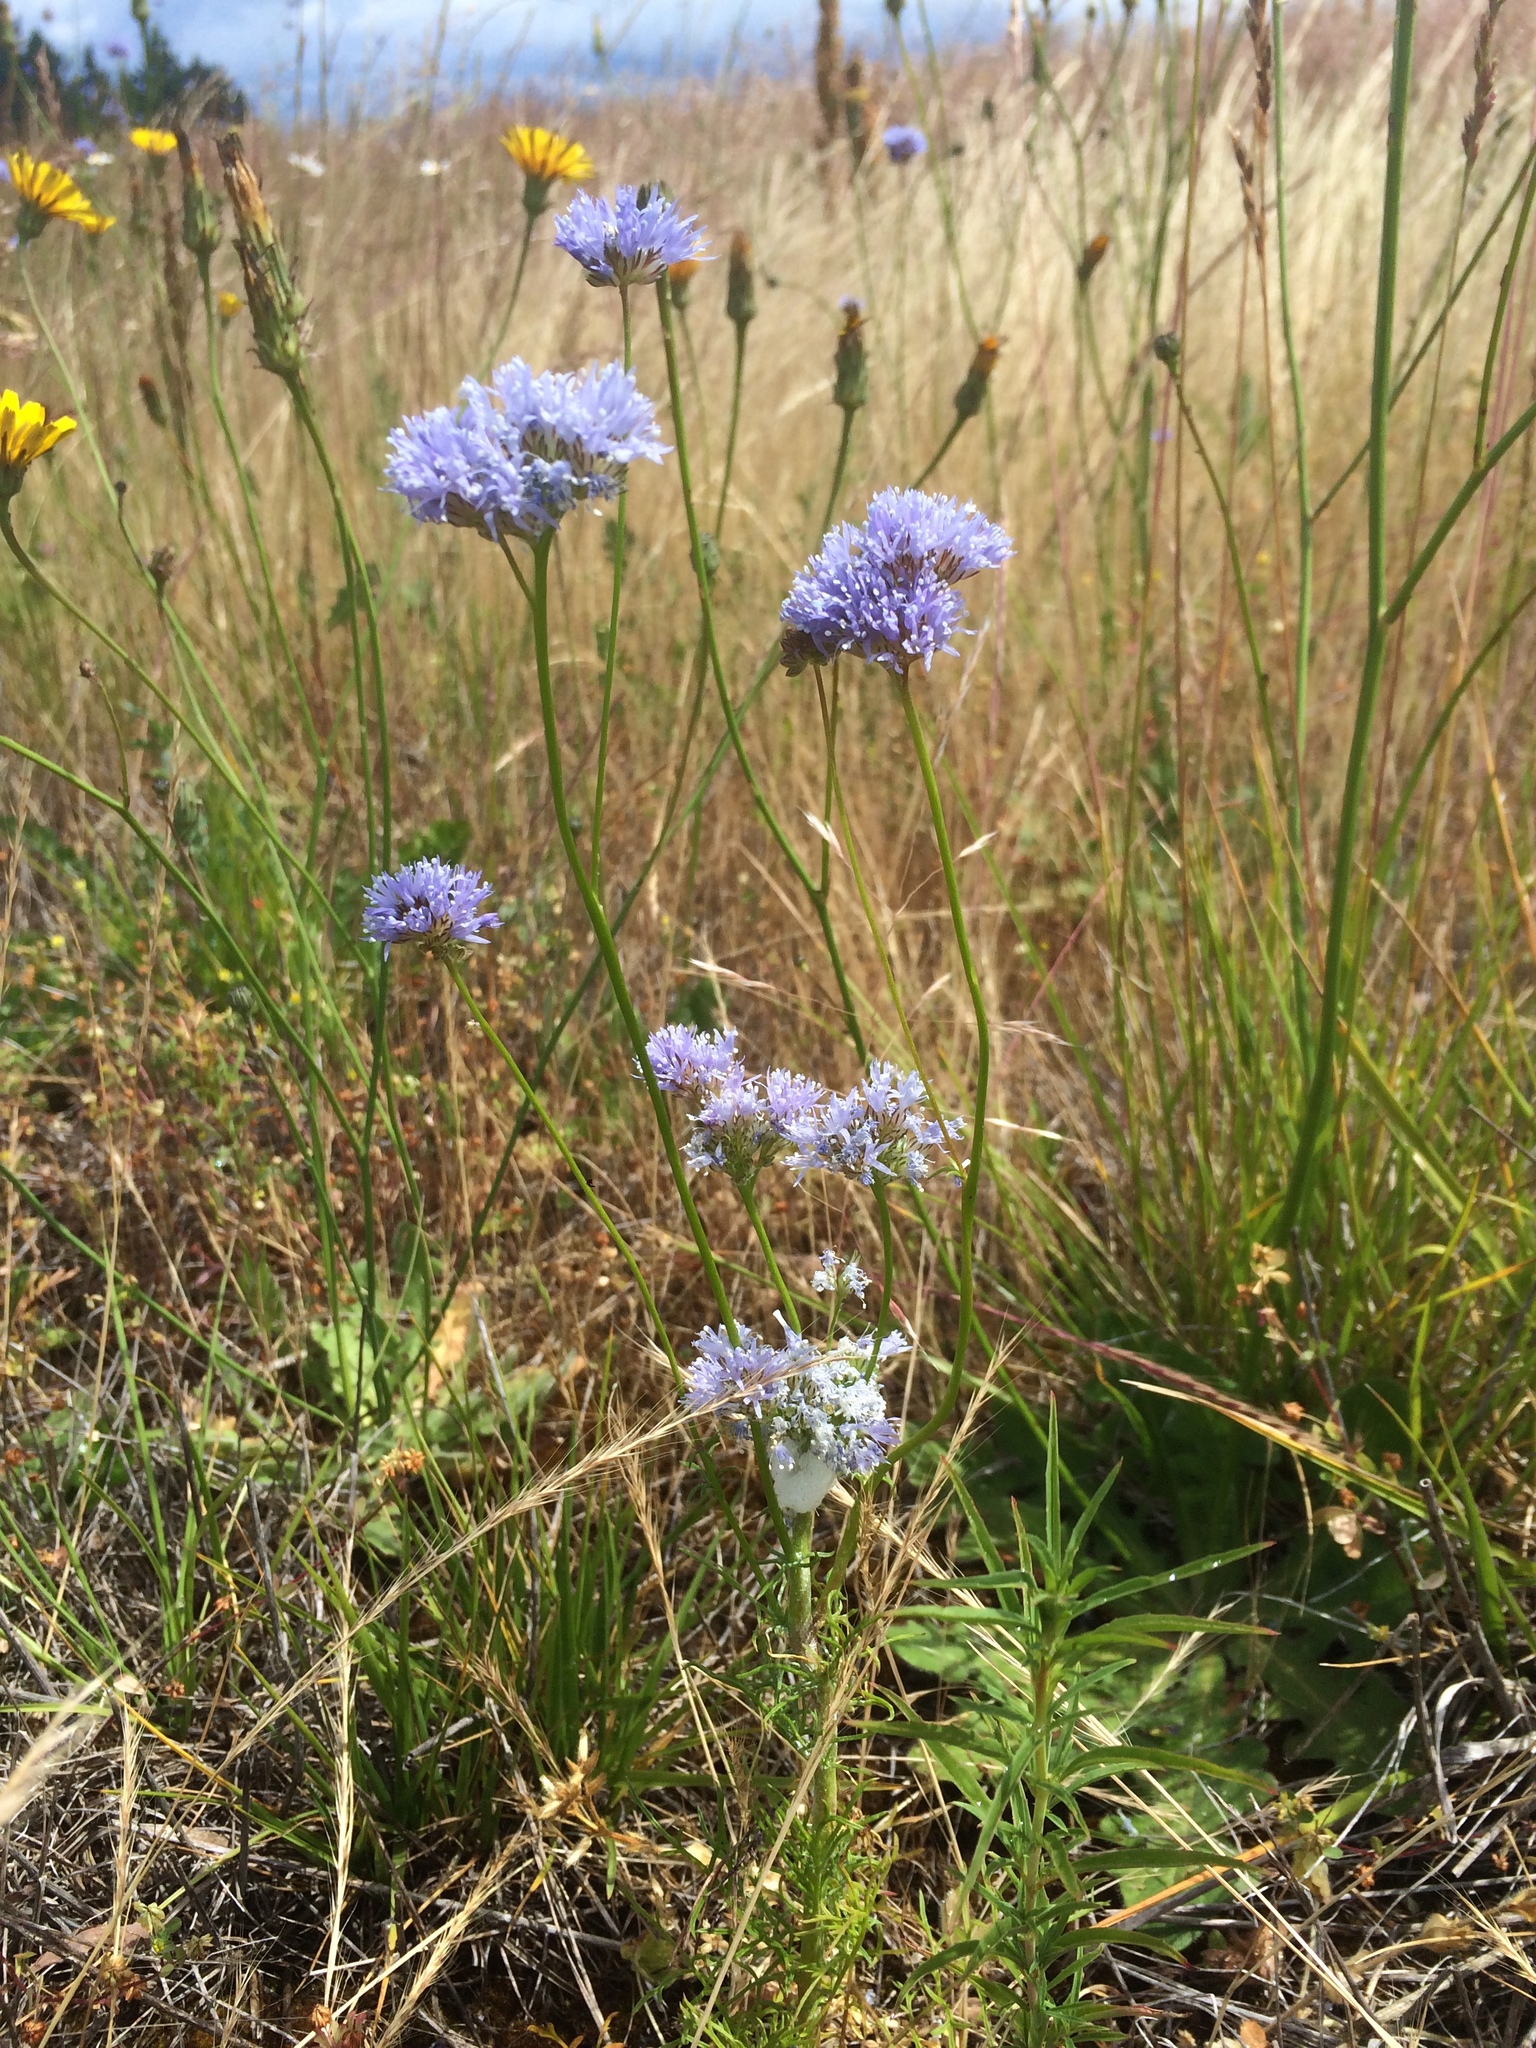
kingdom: Plantae
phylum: Tracheophyta
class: Magnoliopsida
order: Ericales
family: Polemoniaceae
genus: Gilia
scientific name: Gilia capitata
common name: Bluehead gilia
